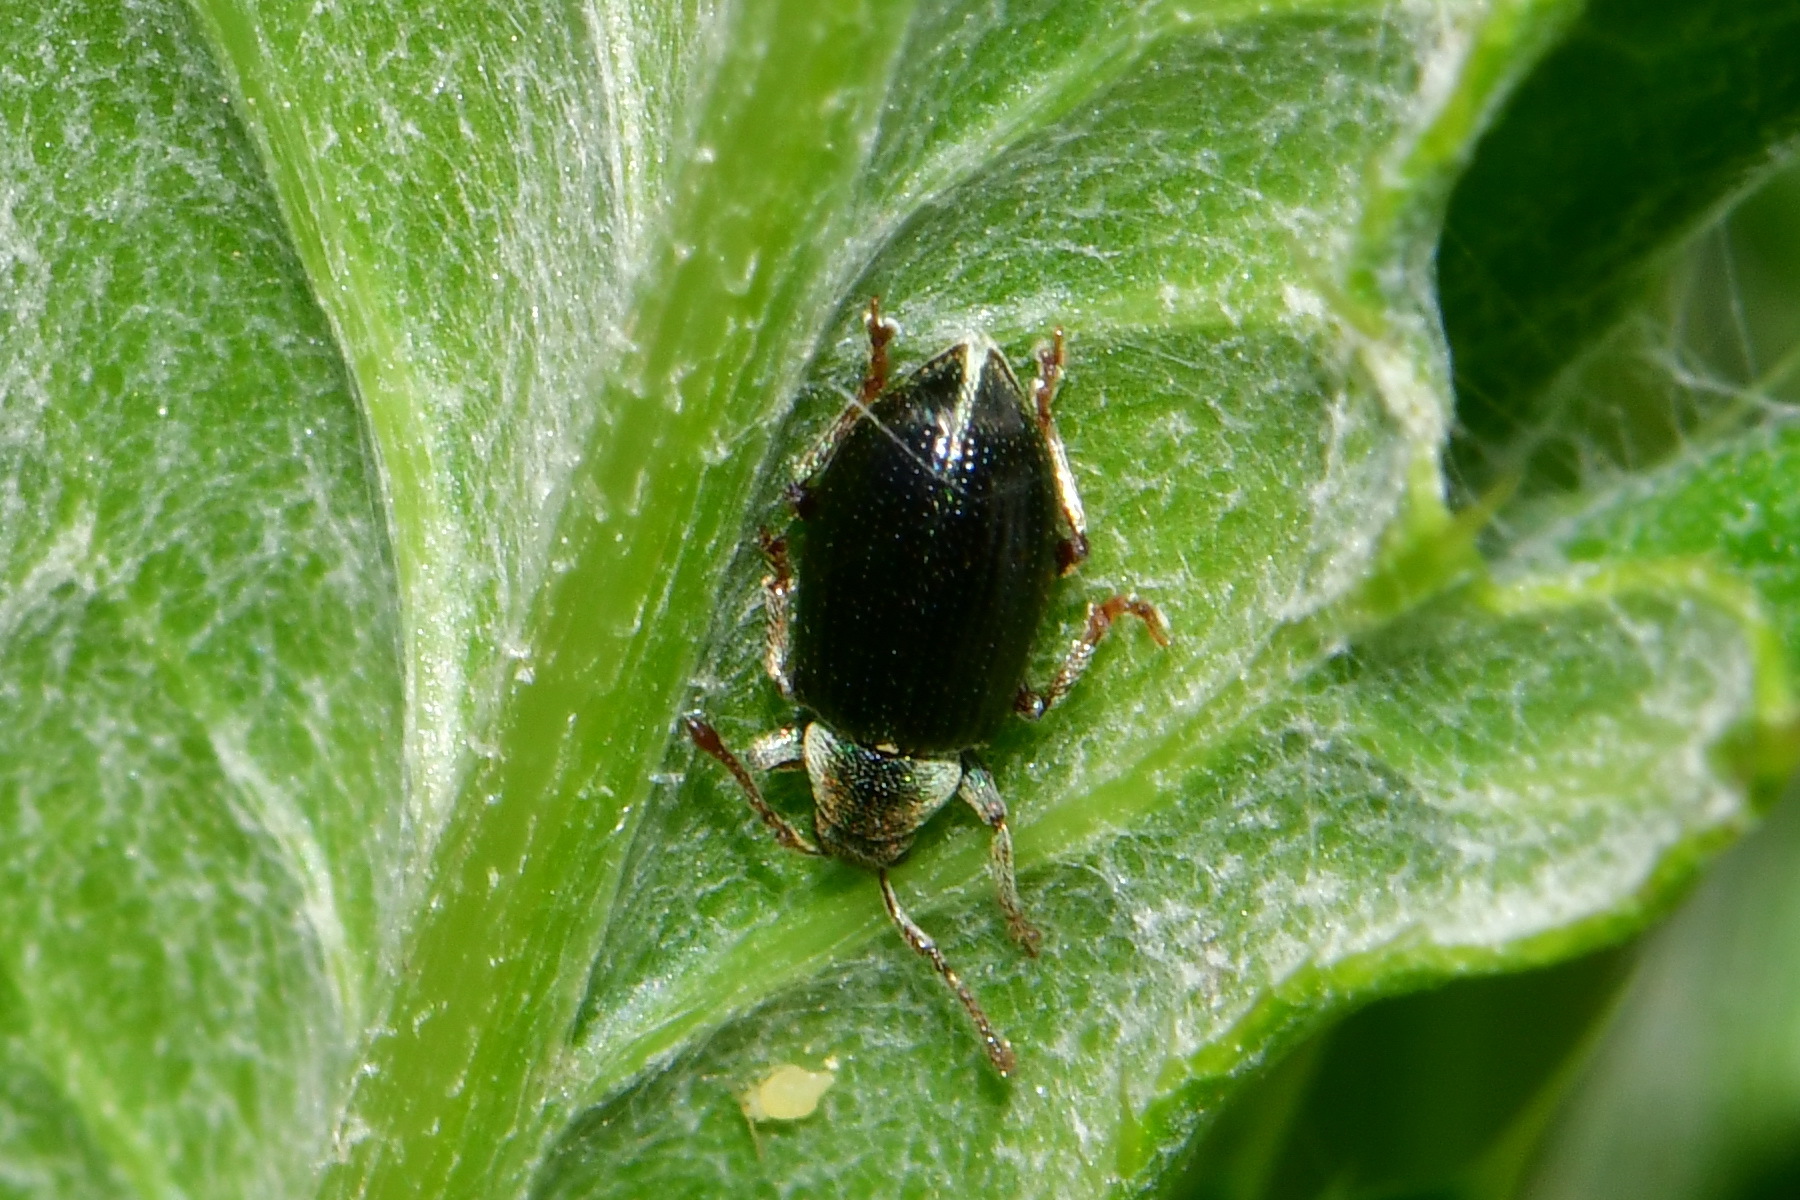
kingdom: Animalia
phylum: Arthropoda
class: Insecta
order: Coleoptera
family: Curculionidae
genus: Phyllobius
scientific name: Phyllobius viridicollis
